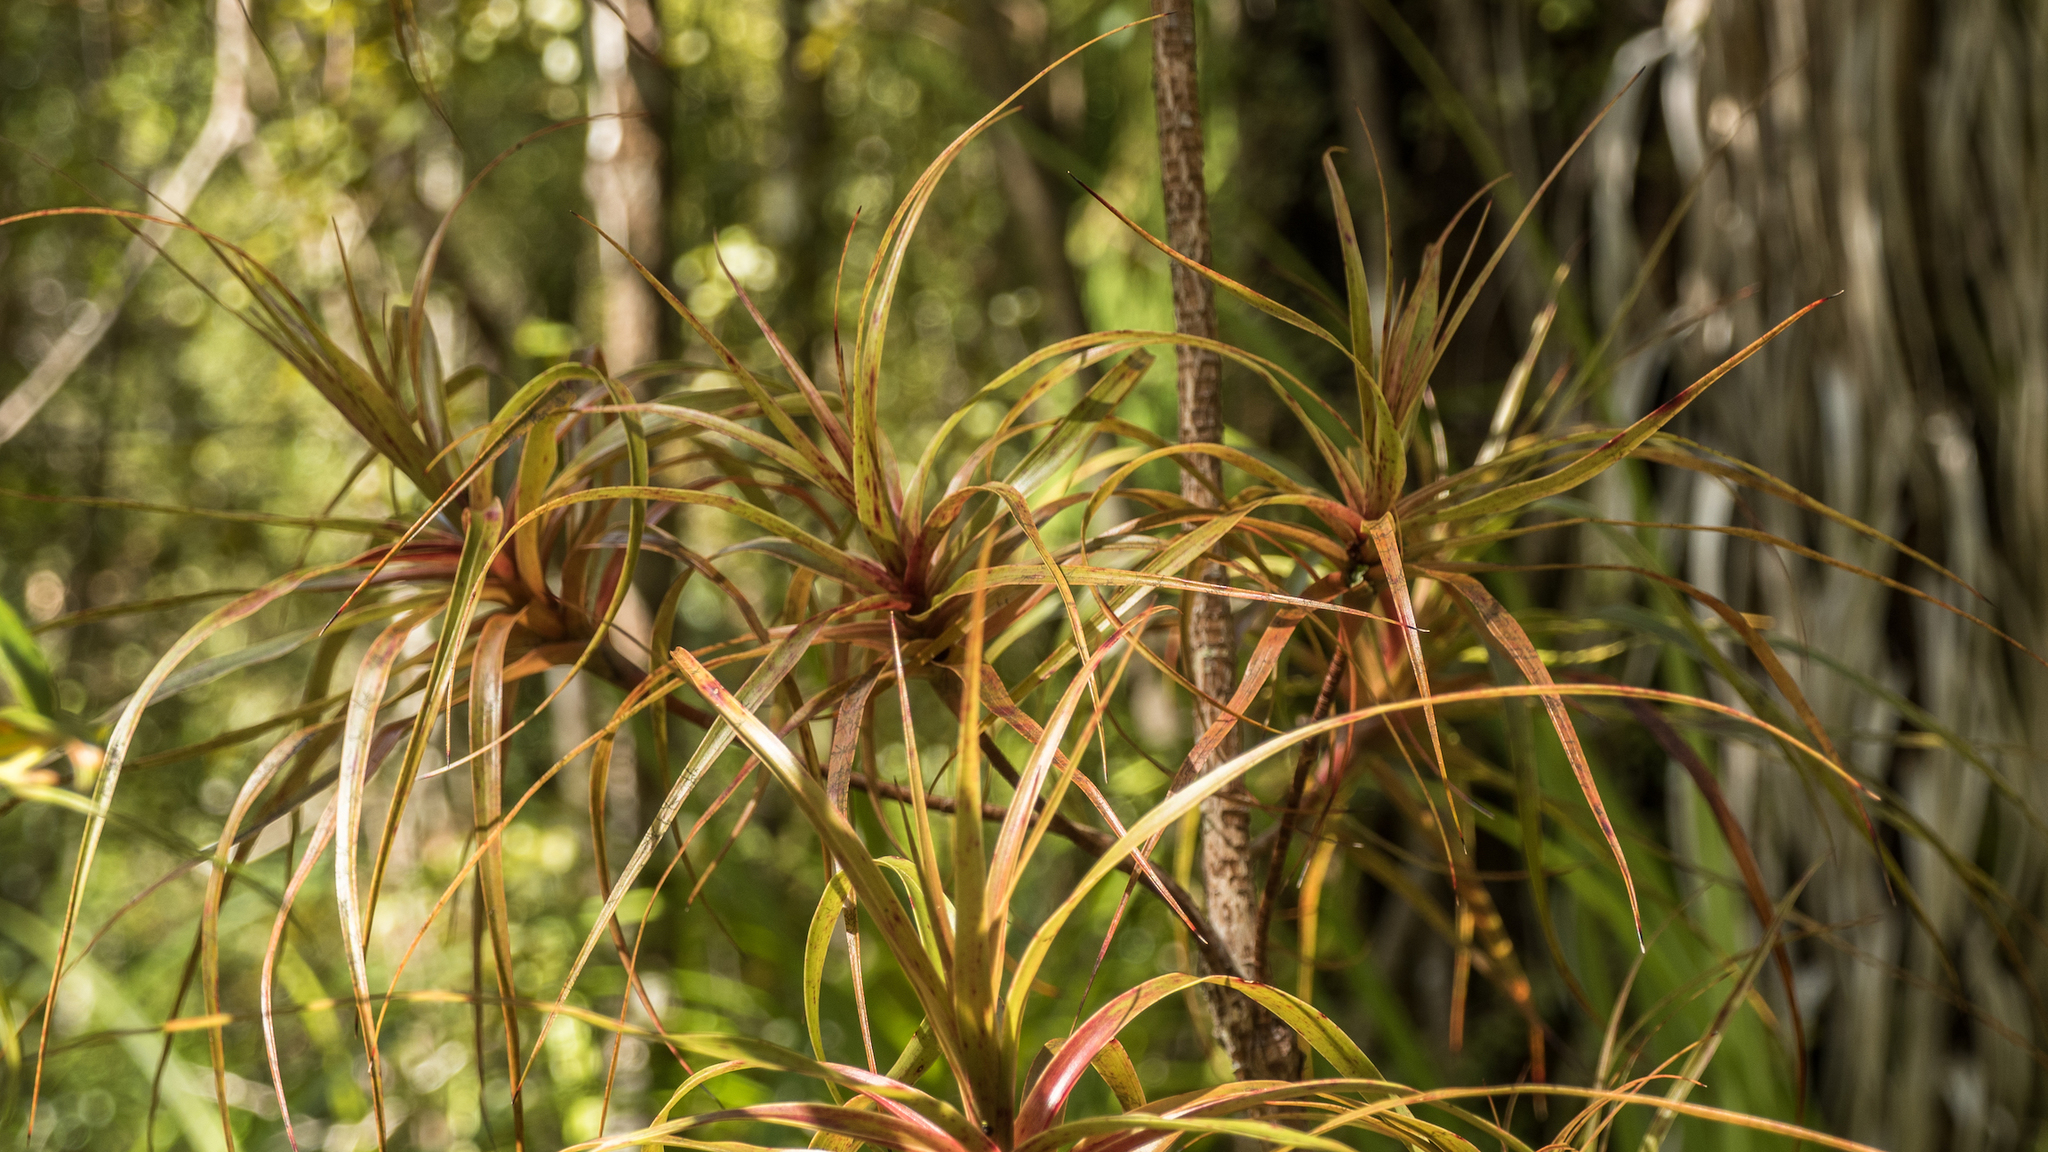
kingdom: Plantae
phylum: Tracheophyta
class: Magnoliopsida
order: Ericales
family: Ericaceae
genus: Dracophyllum
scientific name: Dracophyllum townsonii
